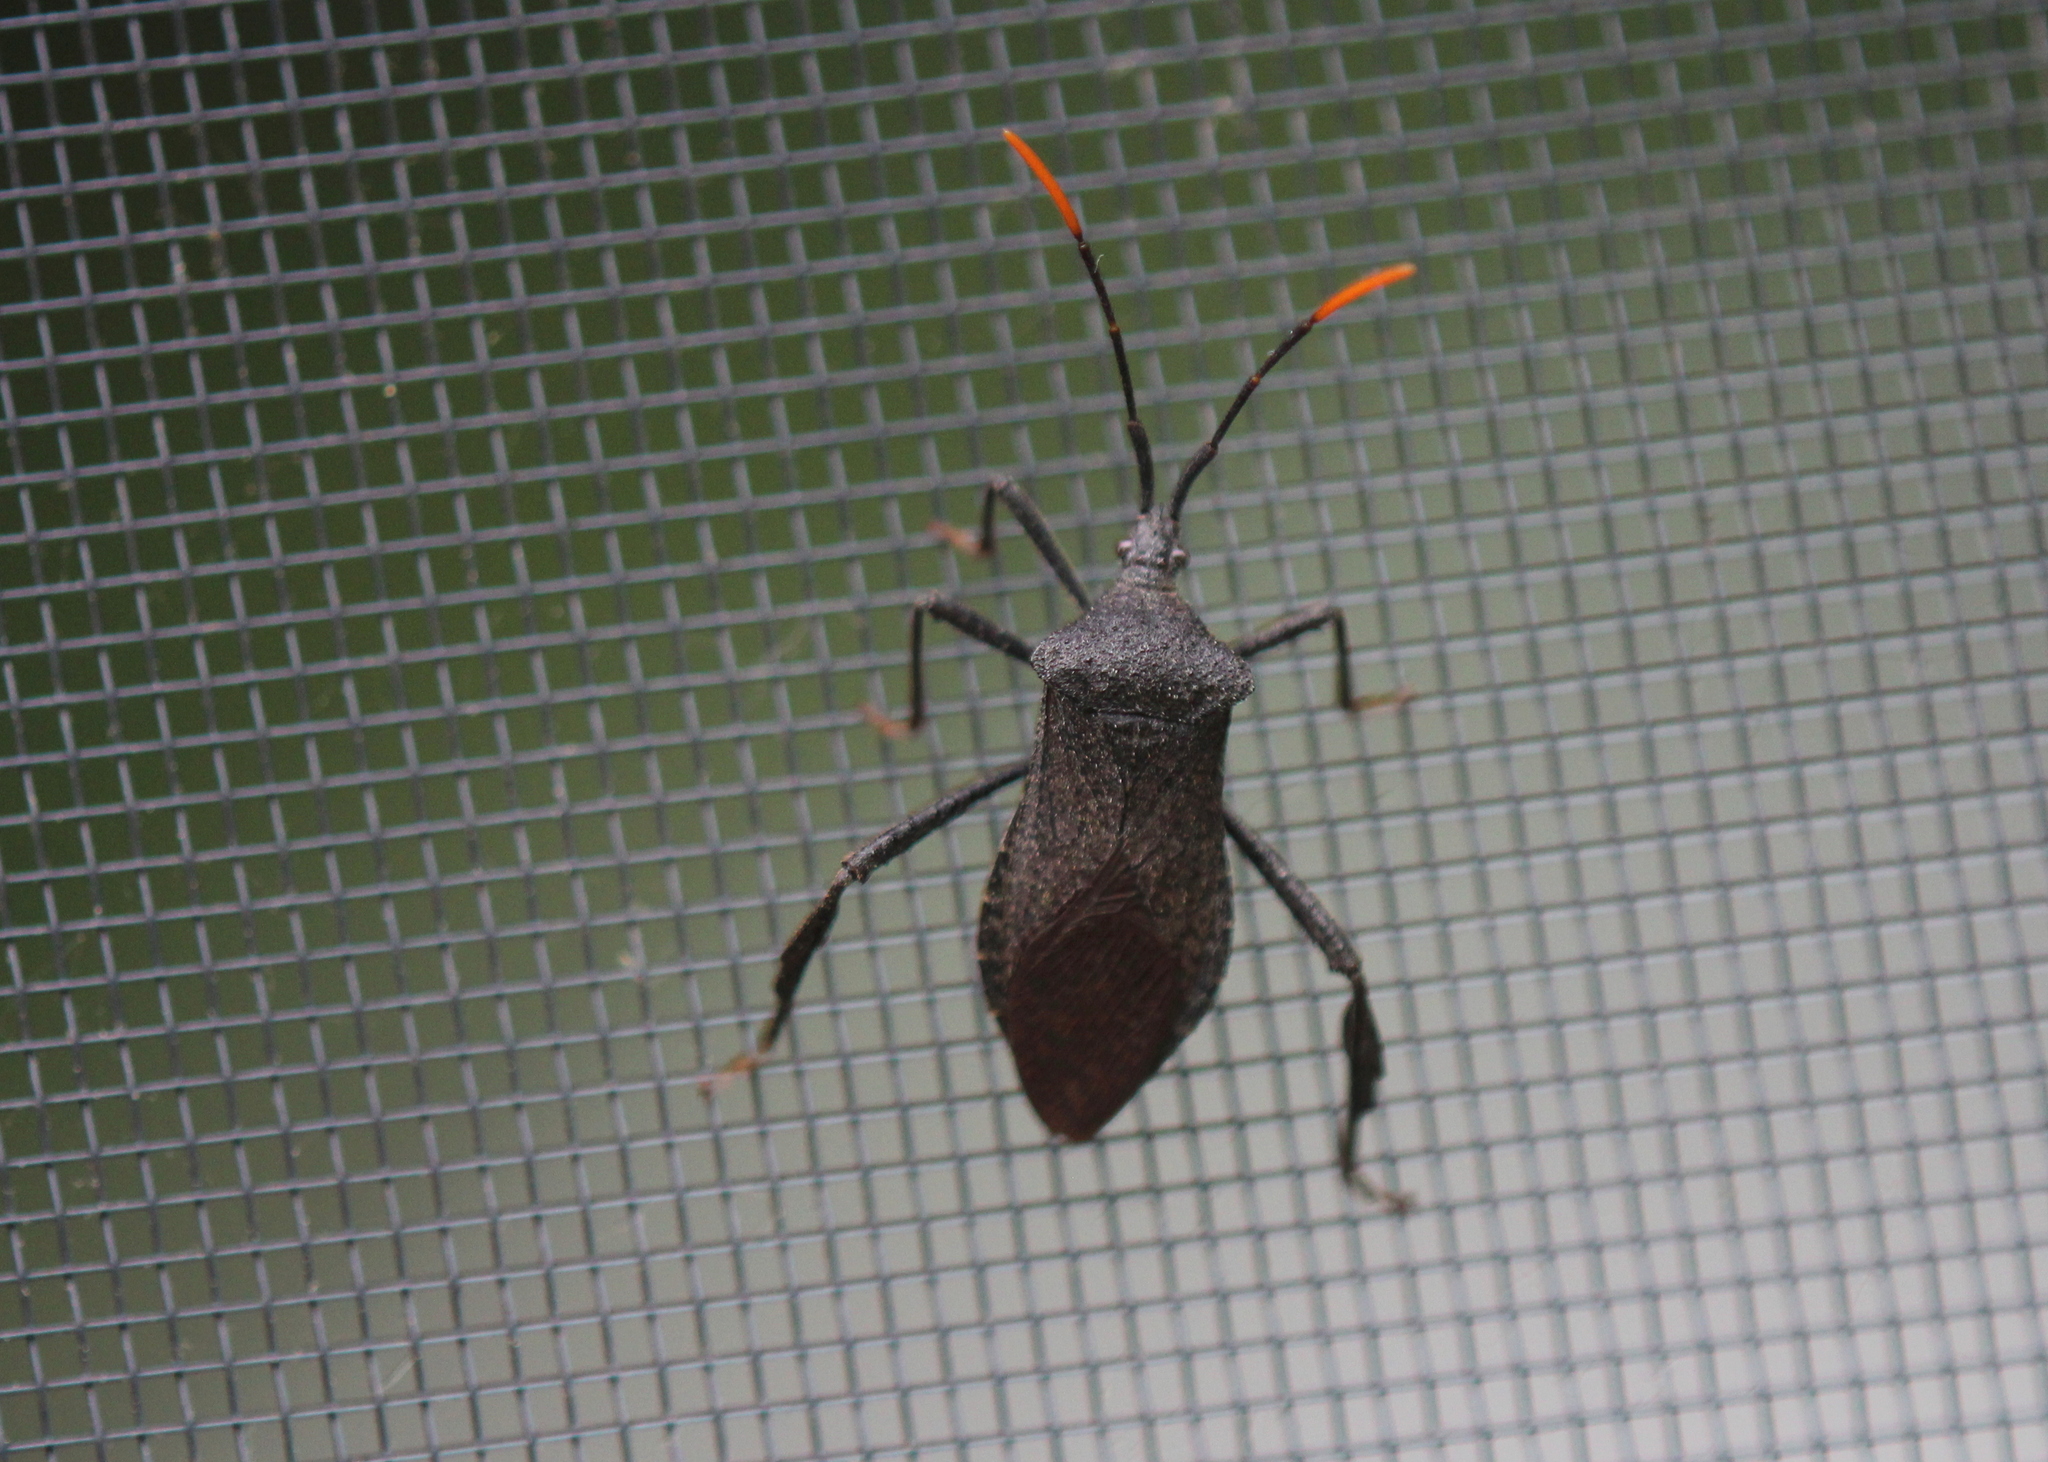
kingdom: Animalia
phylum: Arthropoda
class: Insecta
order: Hemiptera
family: Coreidae
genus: Acanthocephala
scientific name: Acanthocephala terminalis
